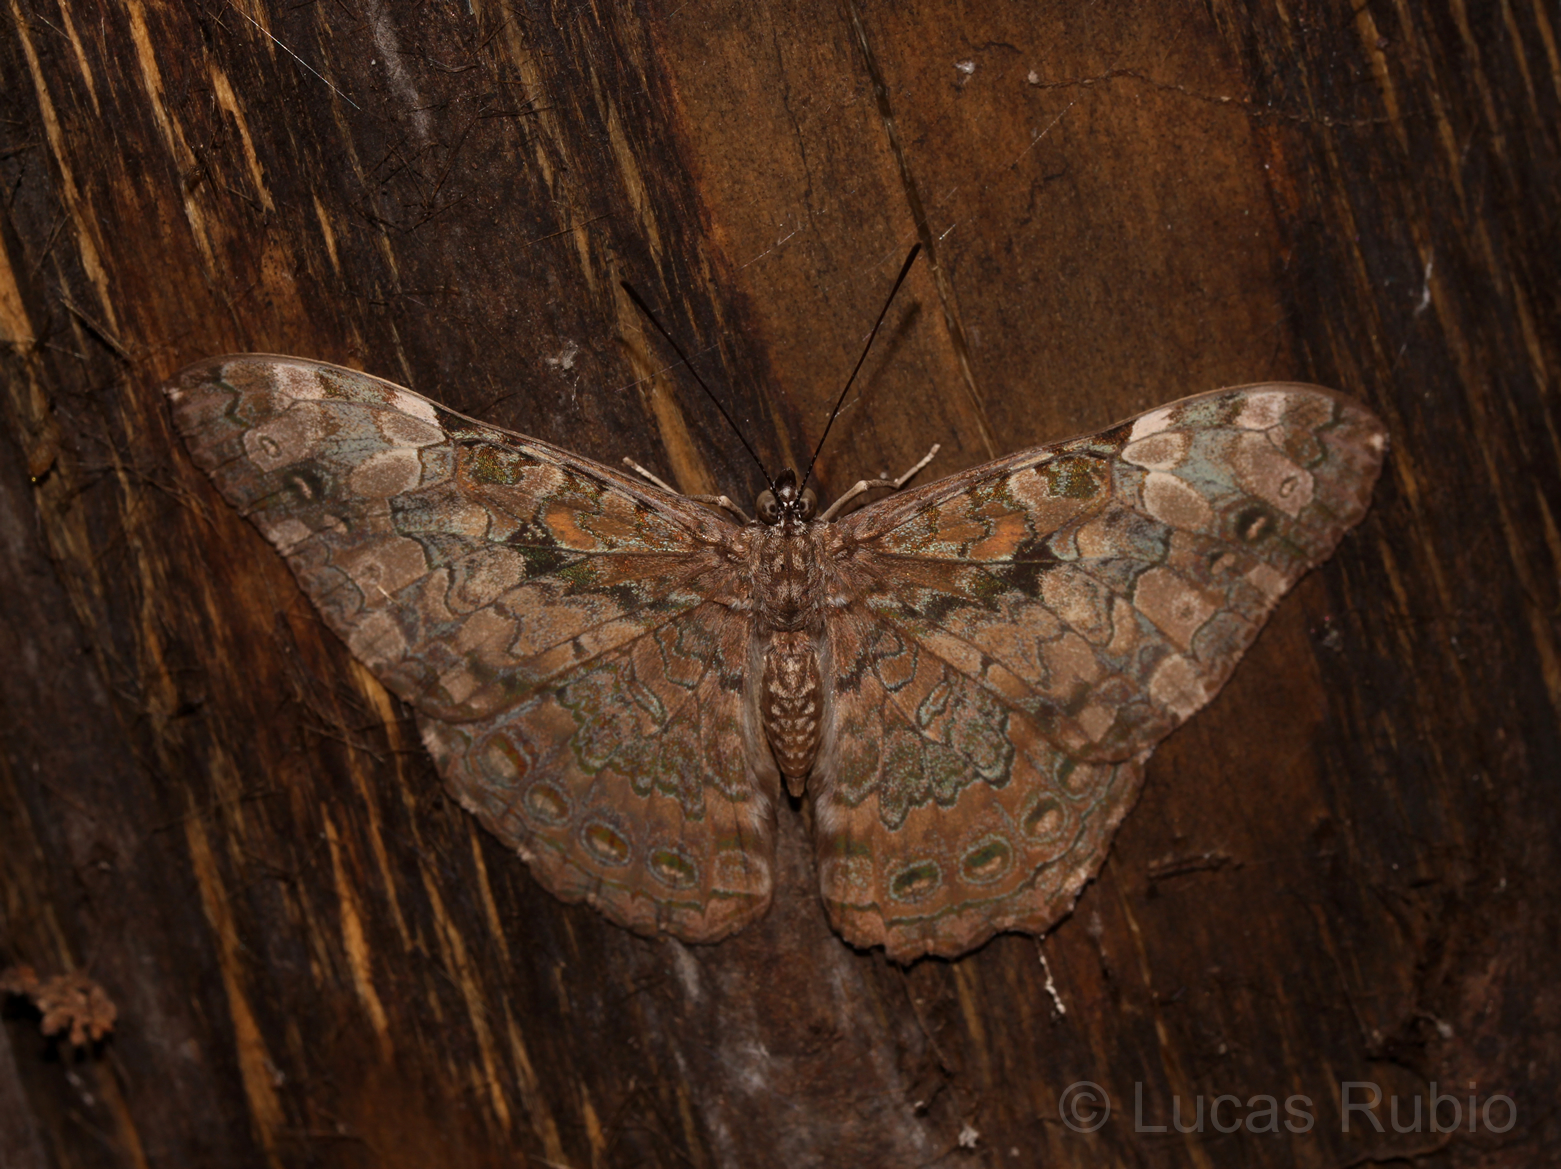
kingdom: Animalia
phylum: Arthropoda
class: Insecta
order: Lepidoptera
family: Nymphalidae
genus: Hamadryas
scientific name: Hamadryas epinome
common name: Epinome cracker
